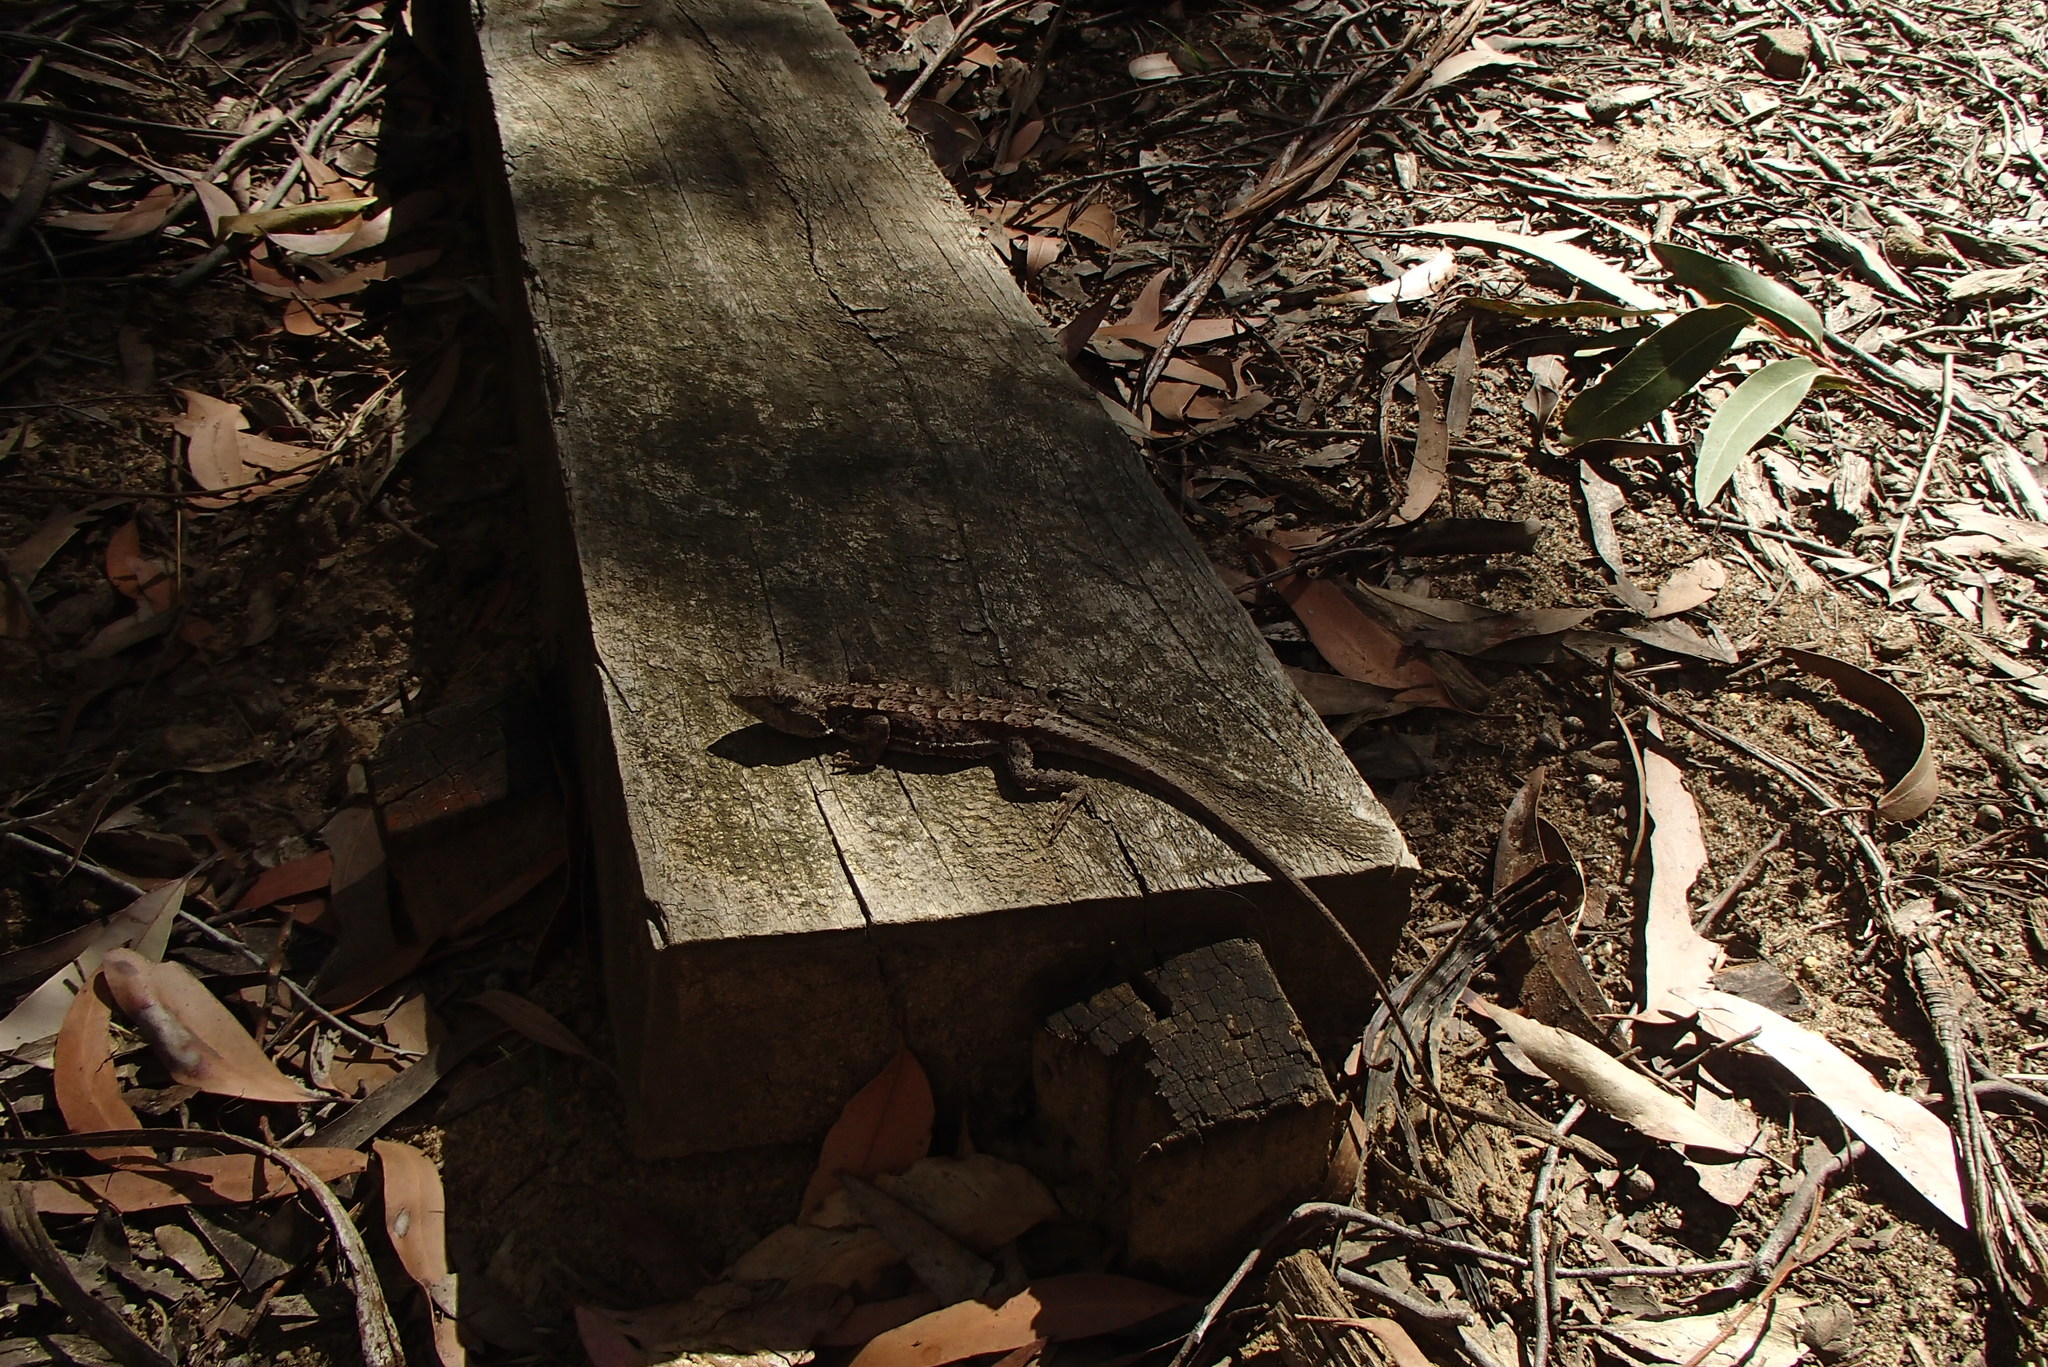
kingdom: Animalia
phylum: Chordata
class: Squamata
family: Agamidae
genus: Rankinia
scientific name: Rankinia diemensis
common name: Mountain dragon
